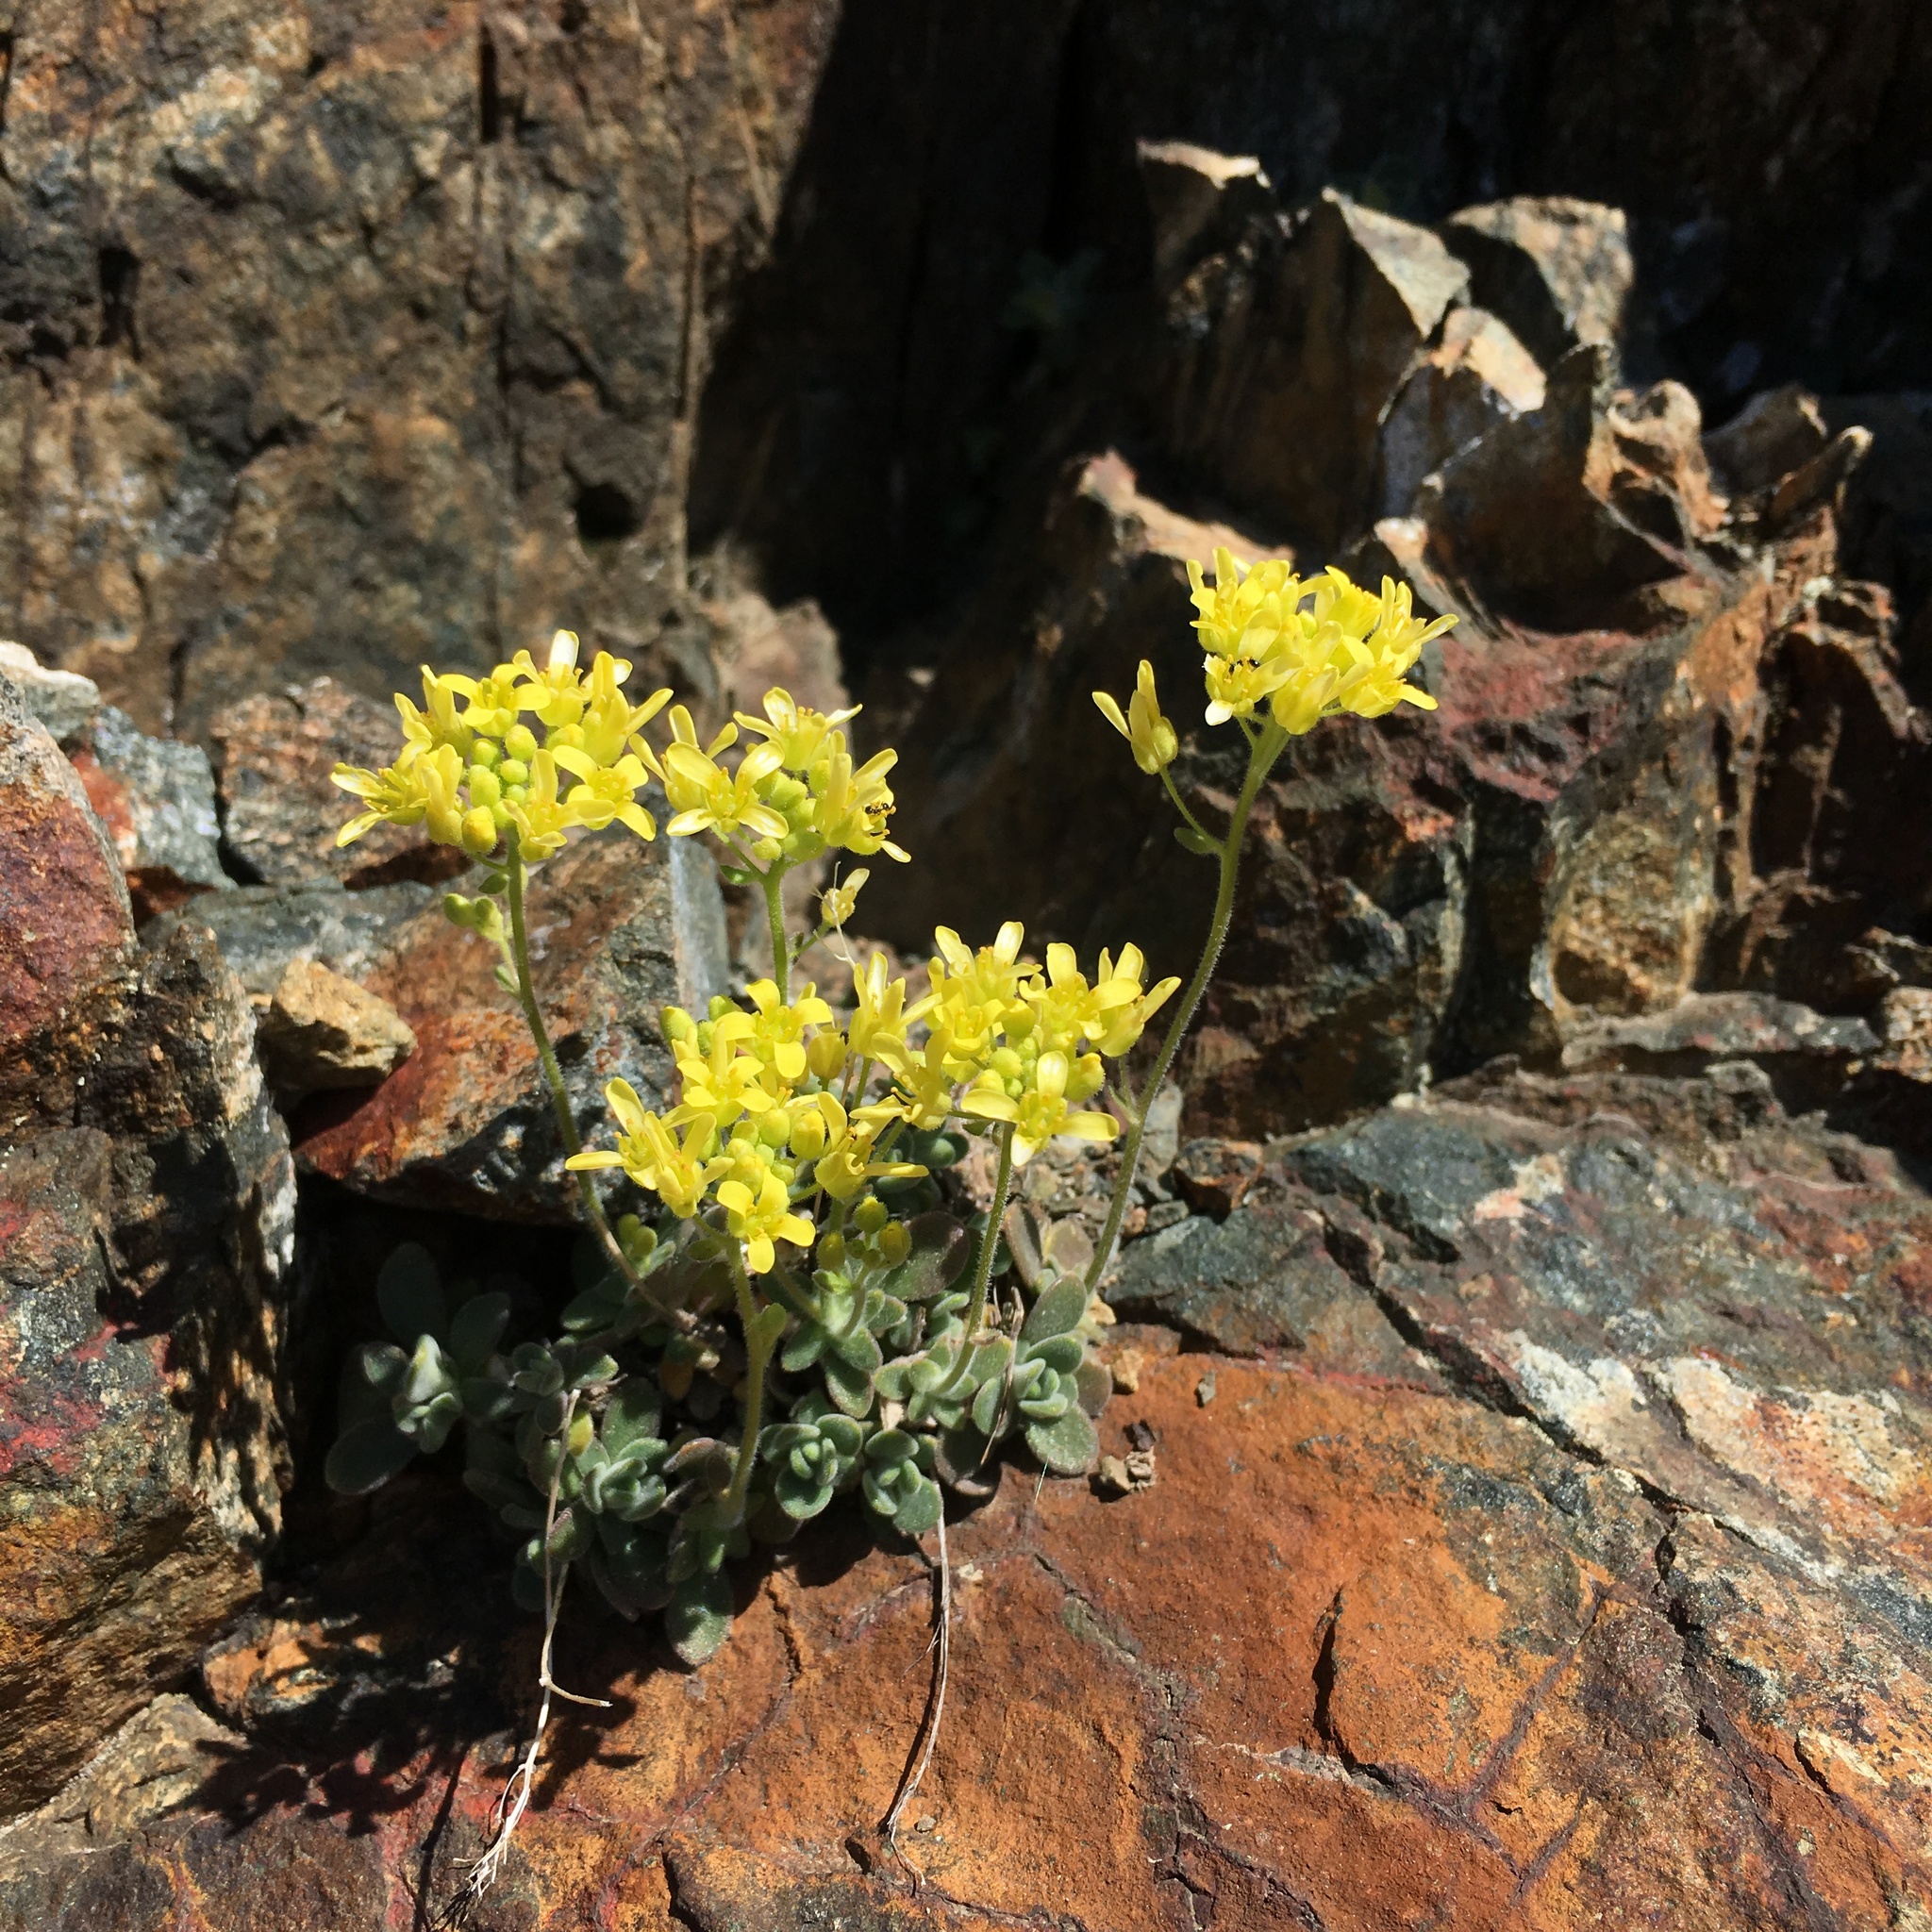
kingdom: Plantae
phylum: Tracheophyta
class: Magnoliopsida
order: Brassicales
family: Brassicaceae
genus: Draba
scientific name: Draba howellii
